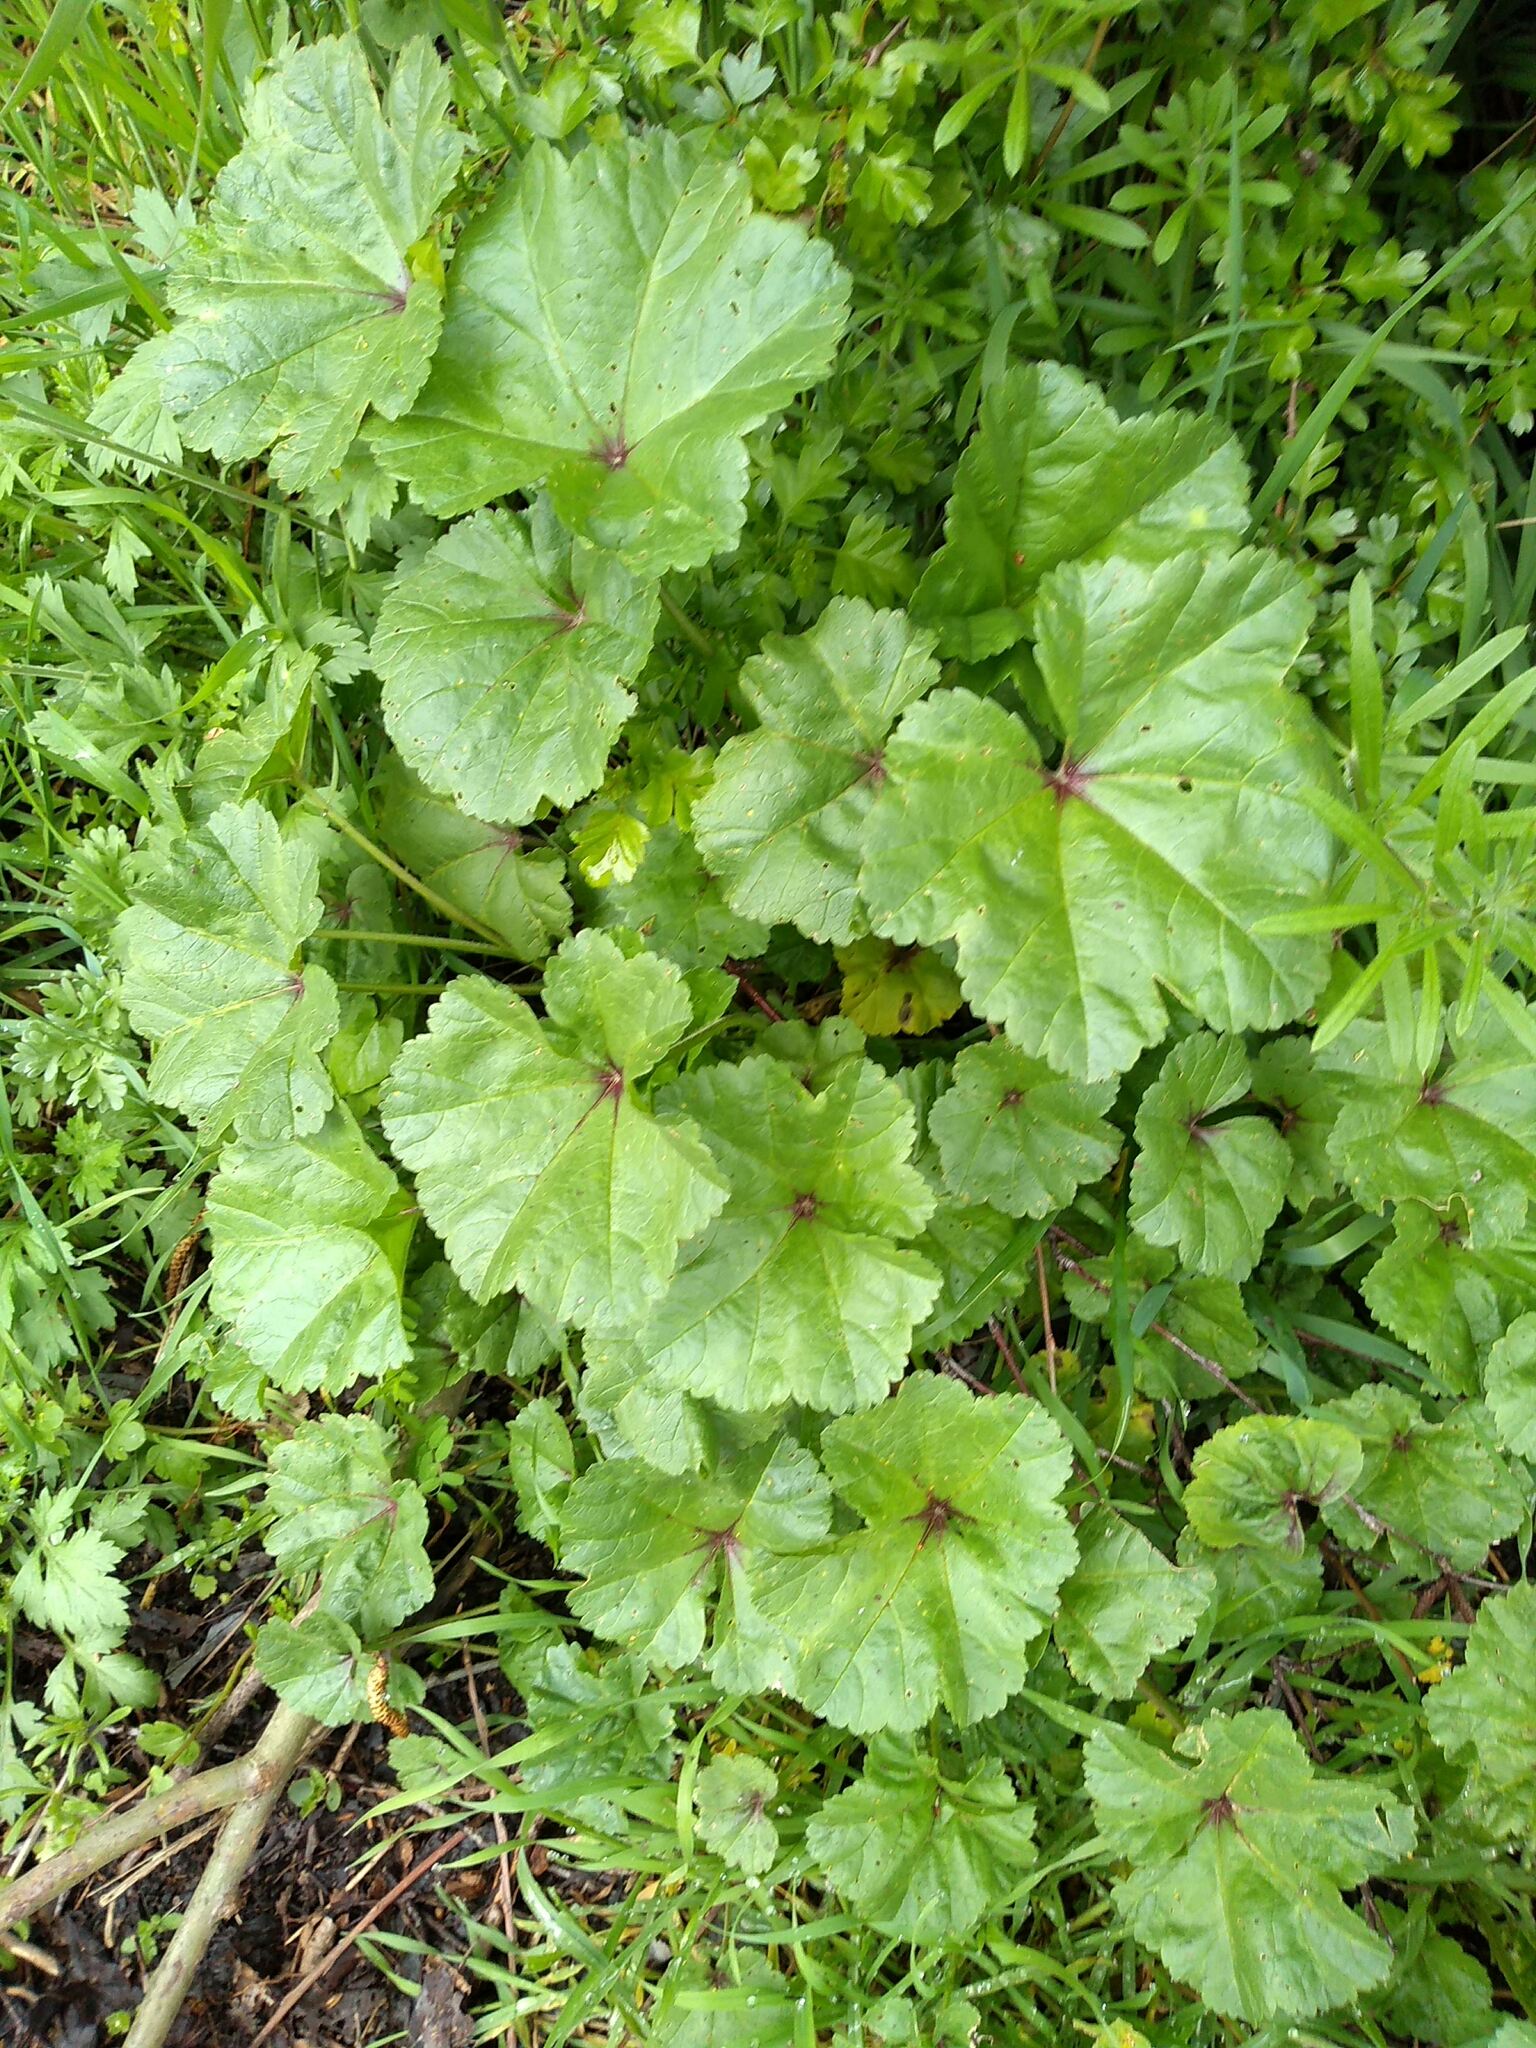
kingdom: Plantae
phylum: Tracheophyta
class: Magnoliopsida
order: Malvales
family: Malvaceae
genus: Malva
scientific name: Malva sylvestris
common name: Common mallow
